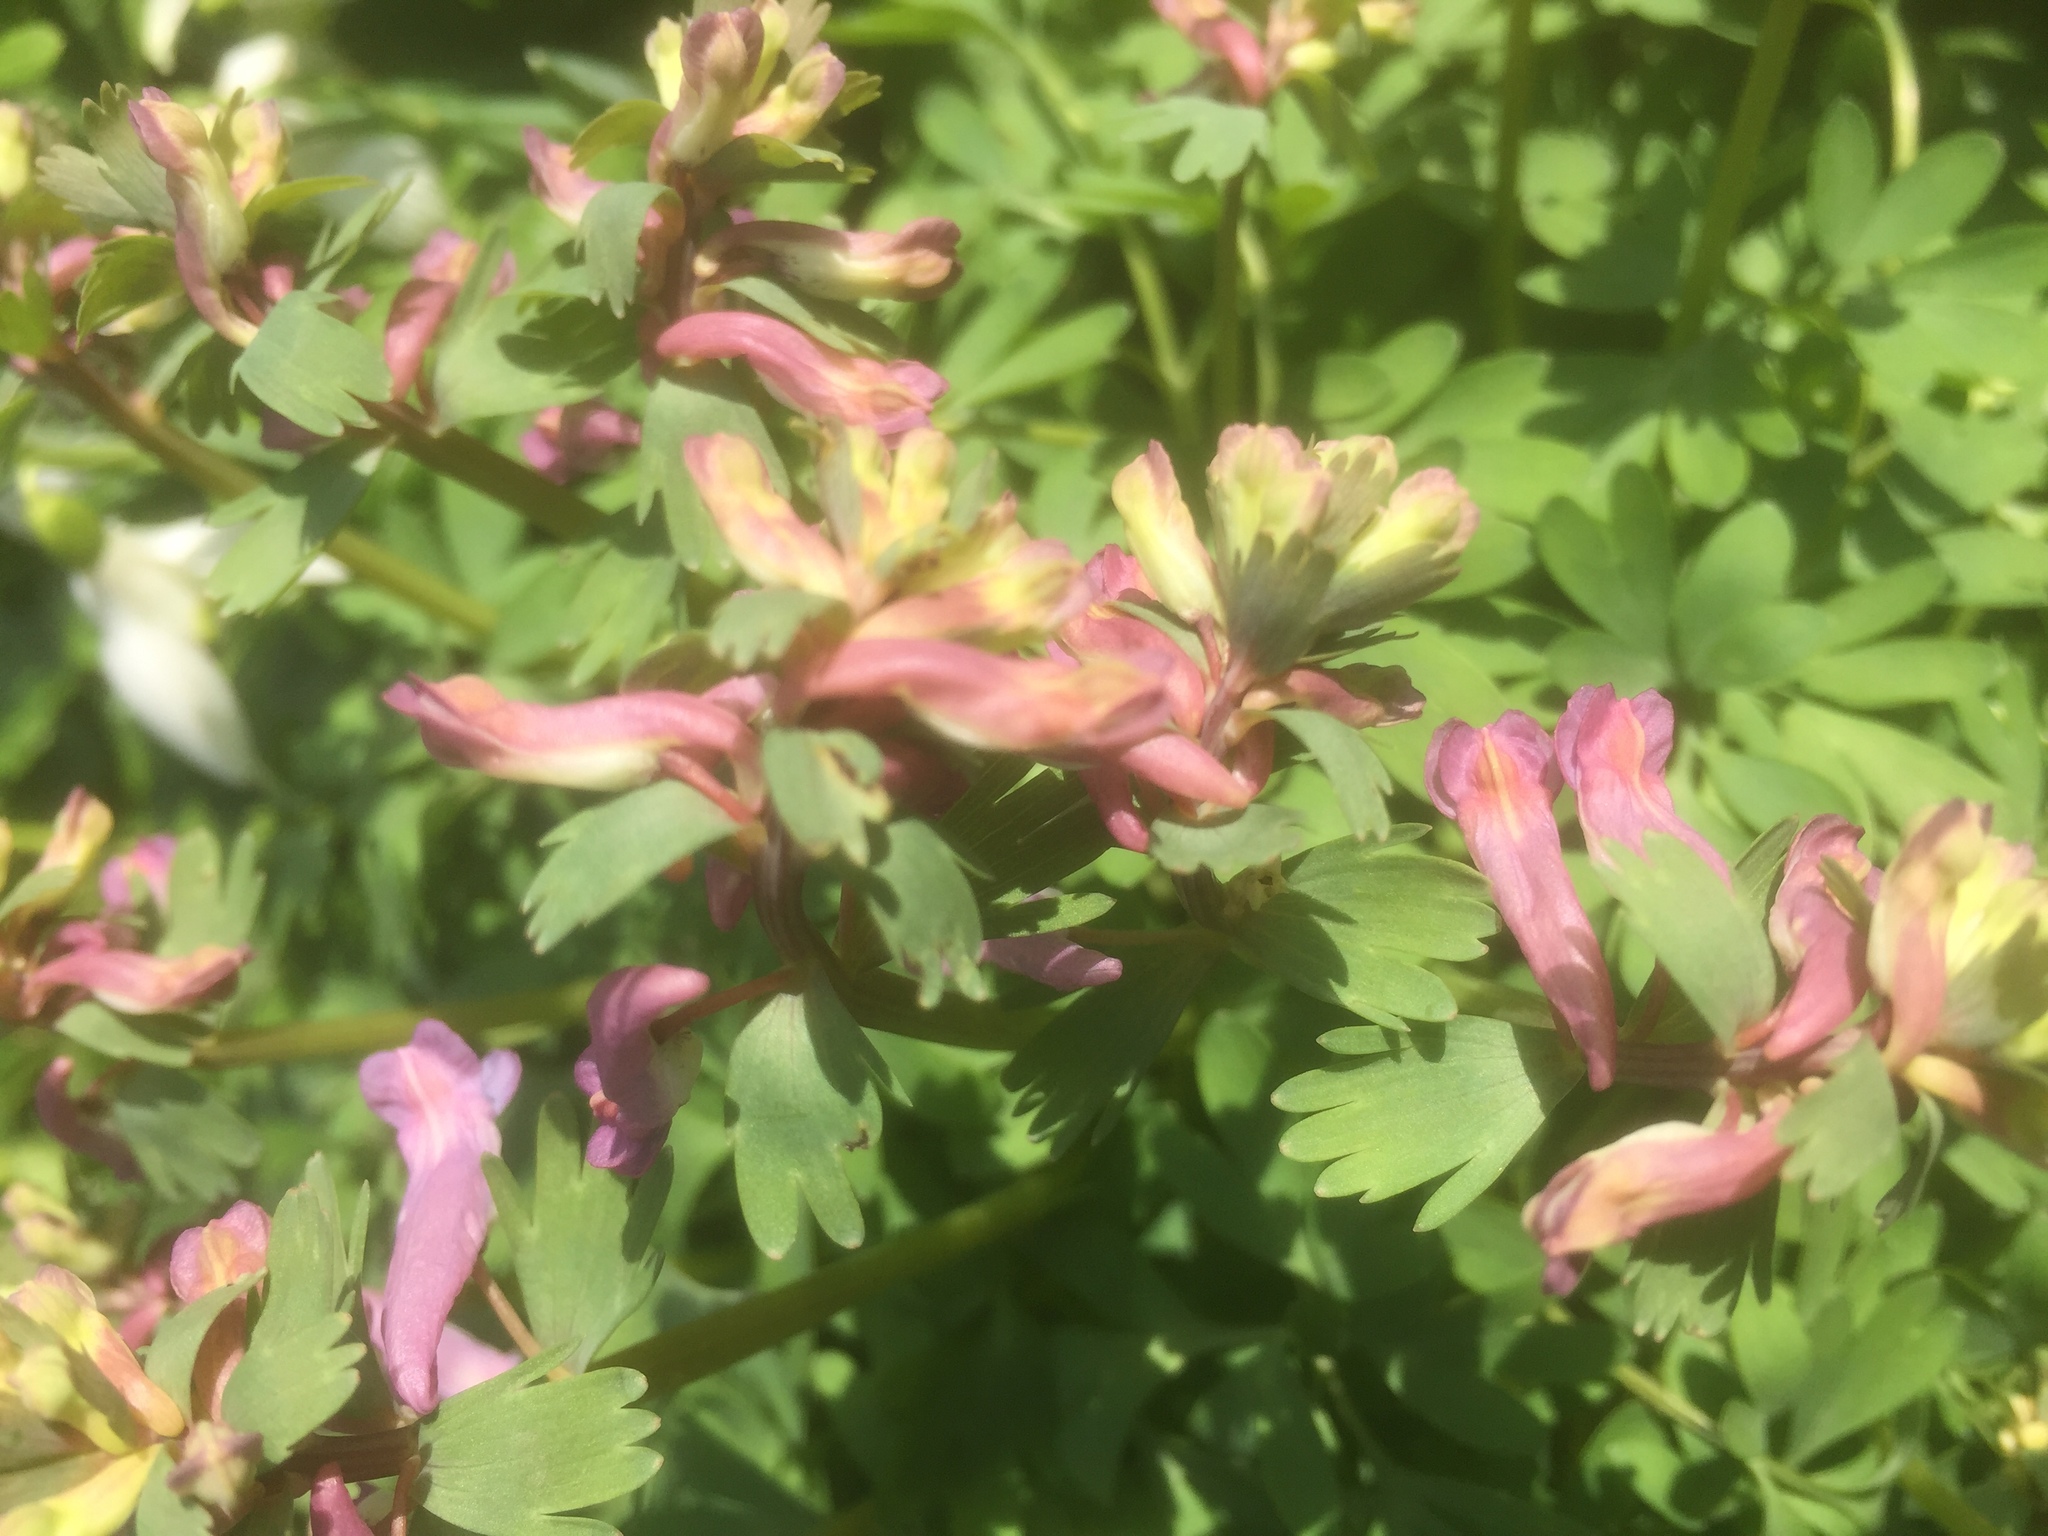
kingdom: Plantae
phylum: Tracheophyta
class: Magnoliopsida
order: Ranunculales
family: Papaveraceae
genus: Corydalis
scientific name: Corydalis solida
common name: Bird-in-a-bush
